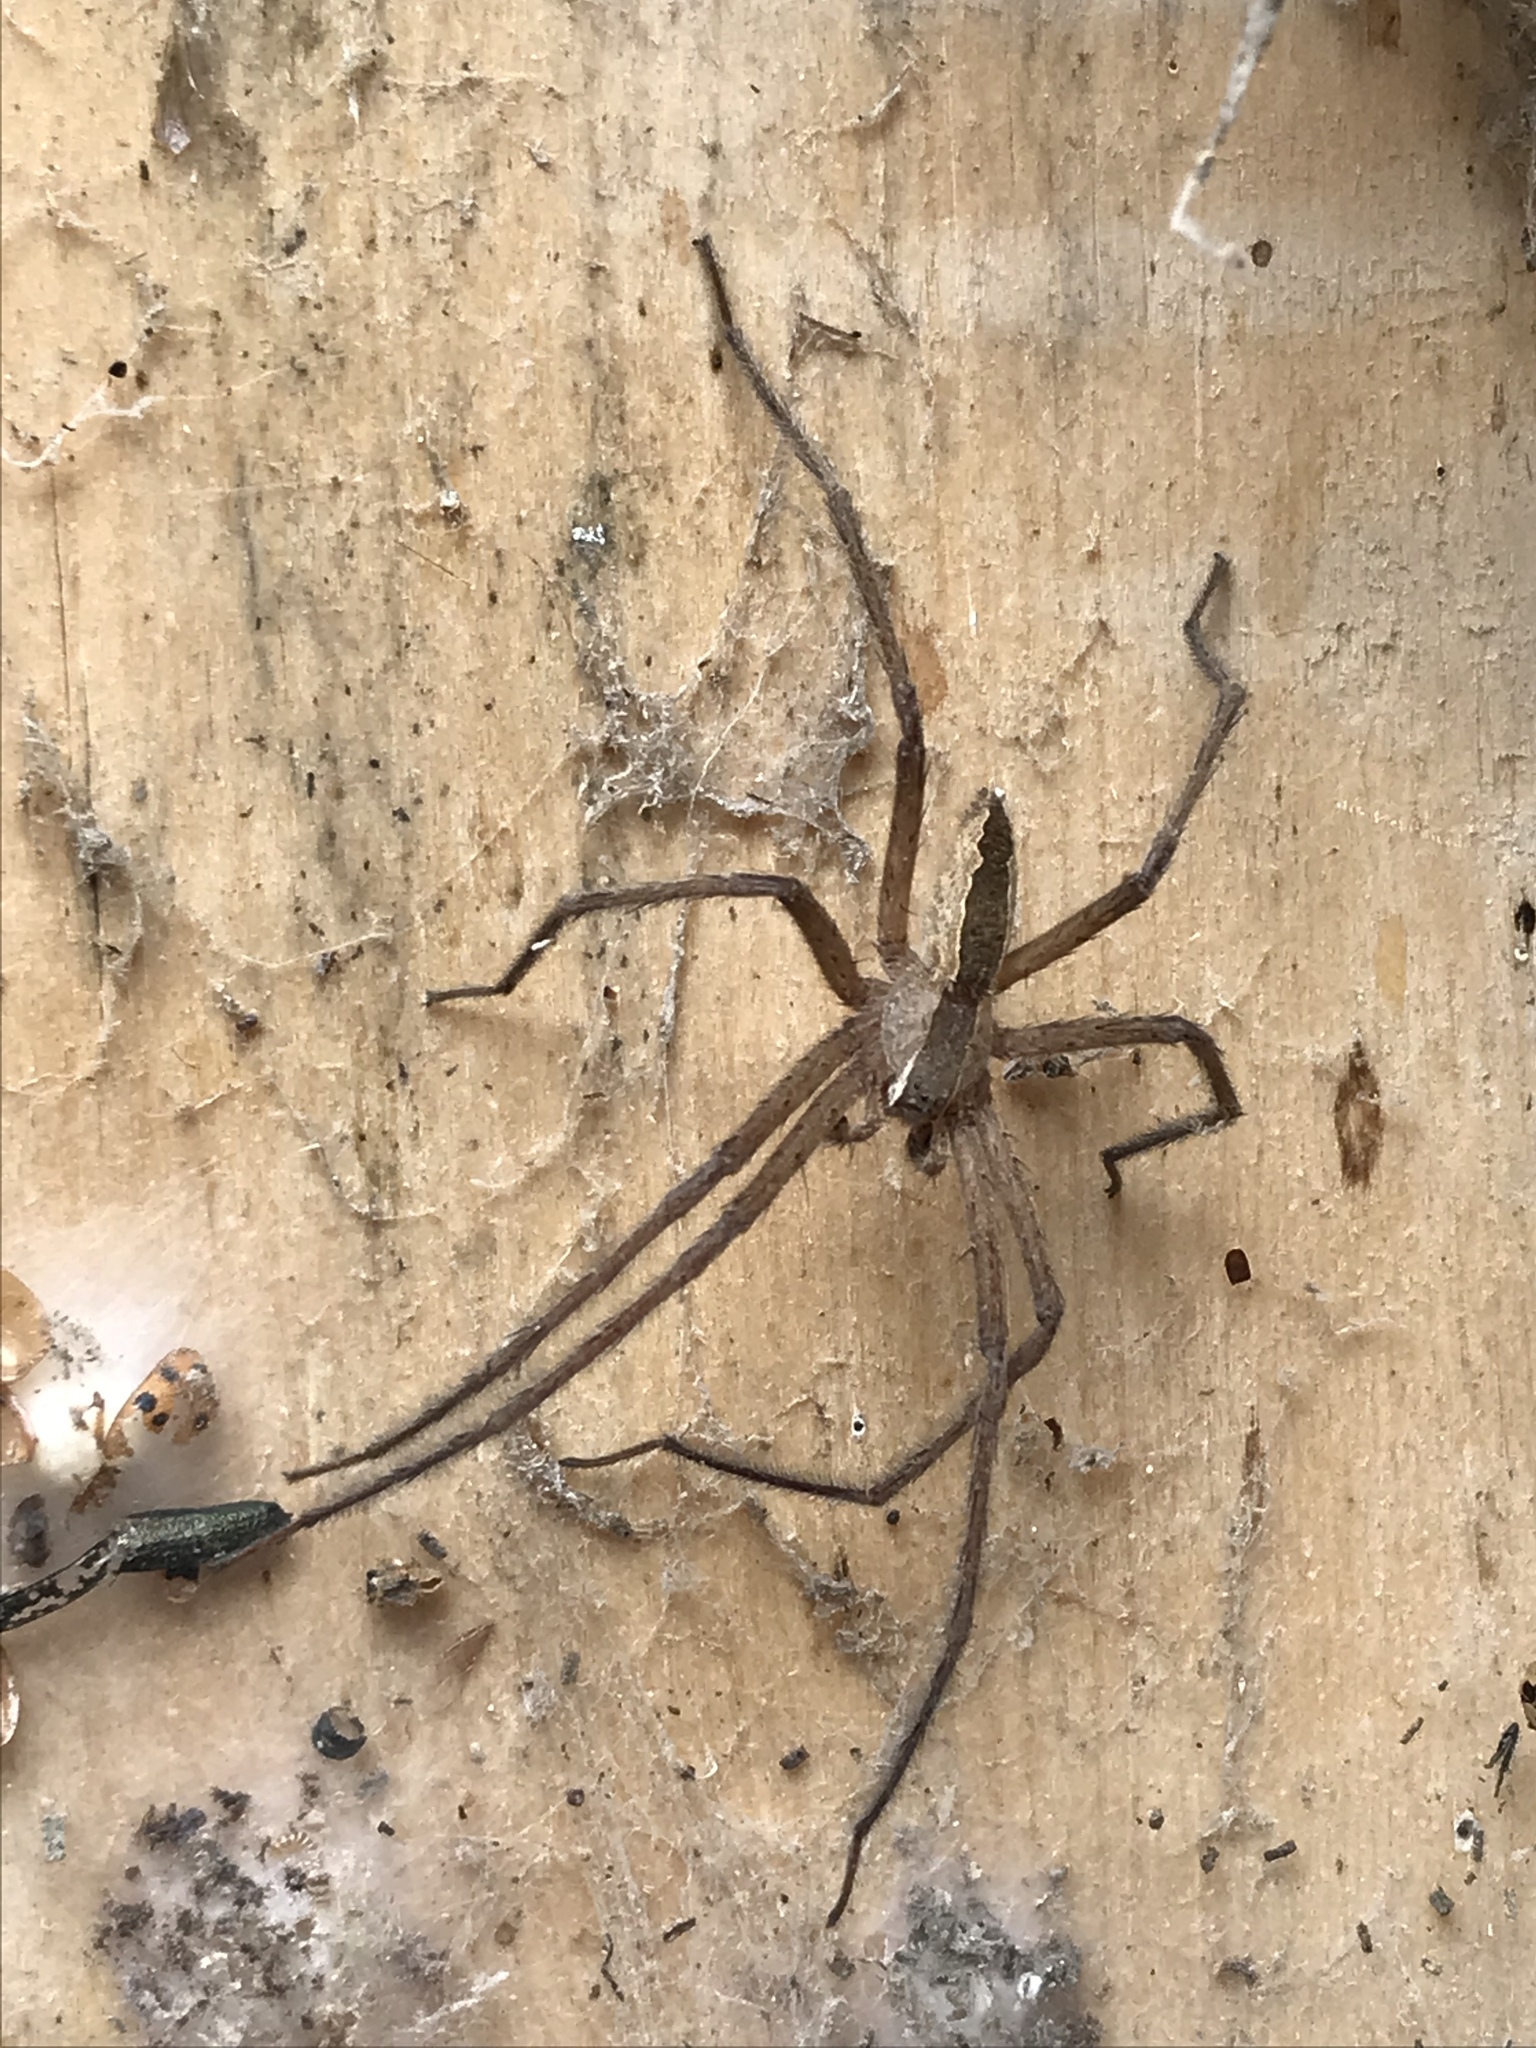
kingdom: Animalia
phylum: Arthropoda
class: Arachnida
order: Araneae
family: Pisauridae
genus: Pisaurina
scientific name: Pisaurina mira
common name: American nursery web spider
